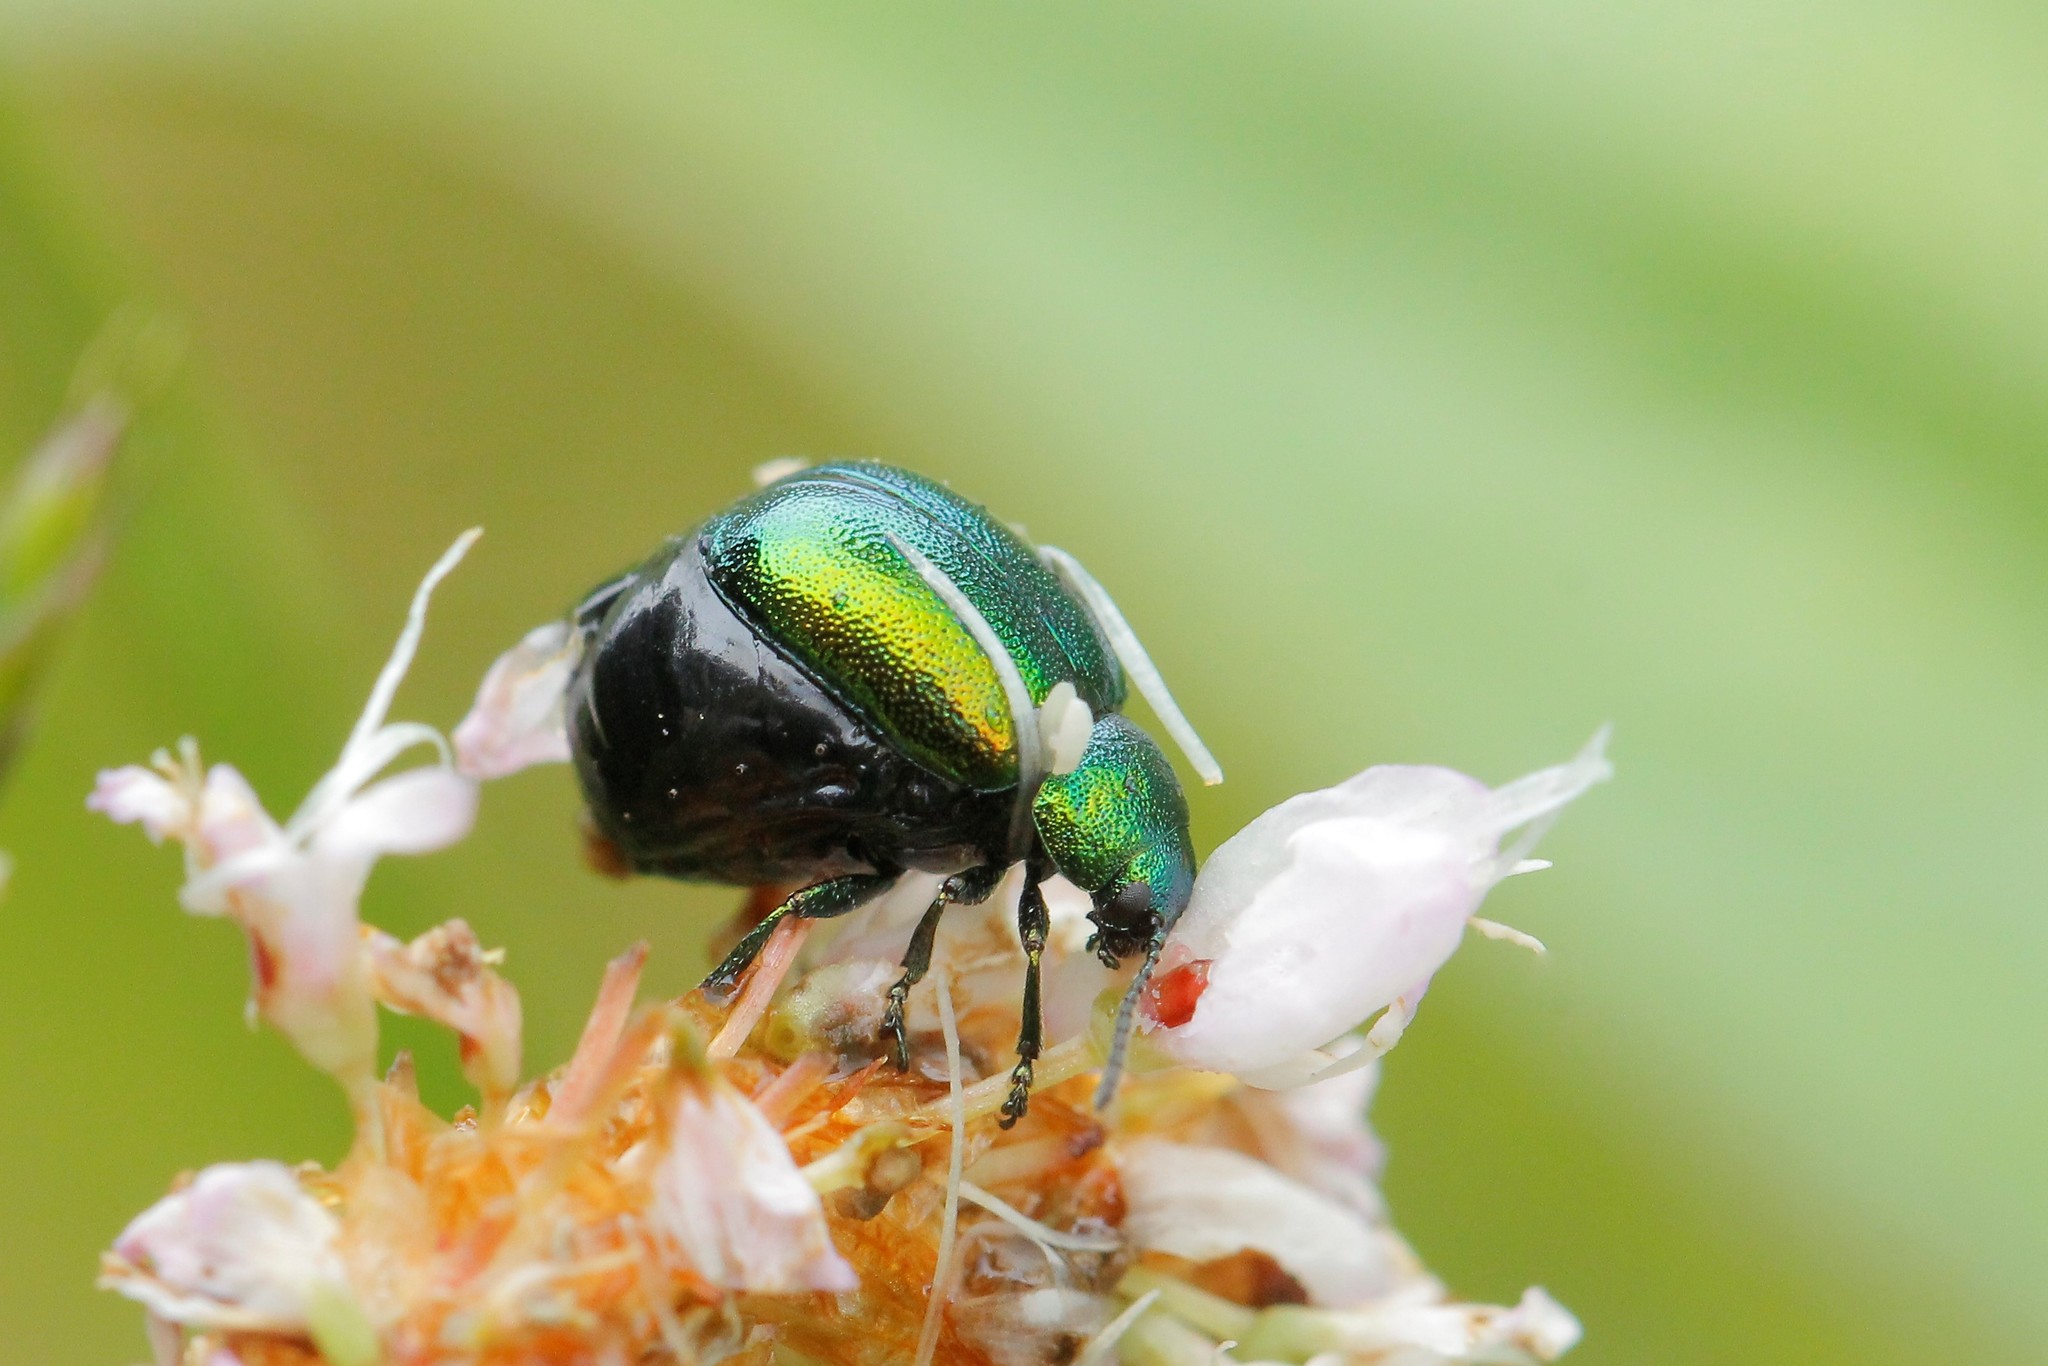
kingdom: Animalia
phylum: Arthropoda
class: Insecta
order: Coleoptera
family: Chrysomelidae
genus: Gastrophysa
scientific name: Gastrophysa viridula
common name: Green dock beetle
